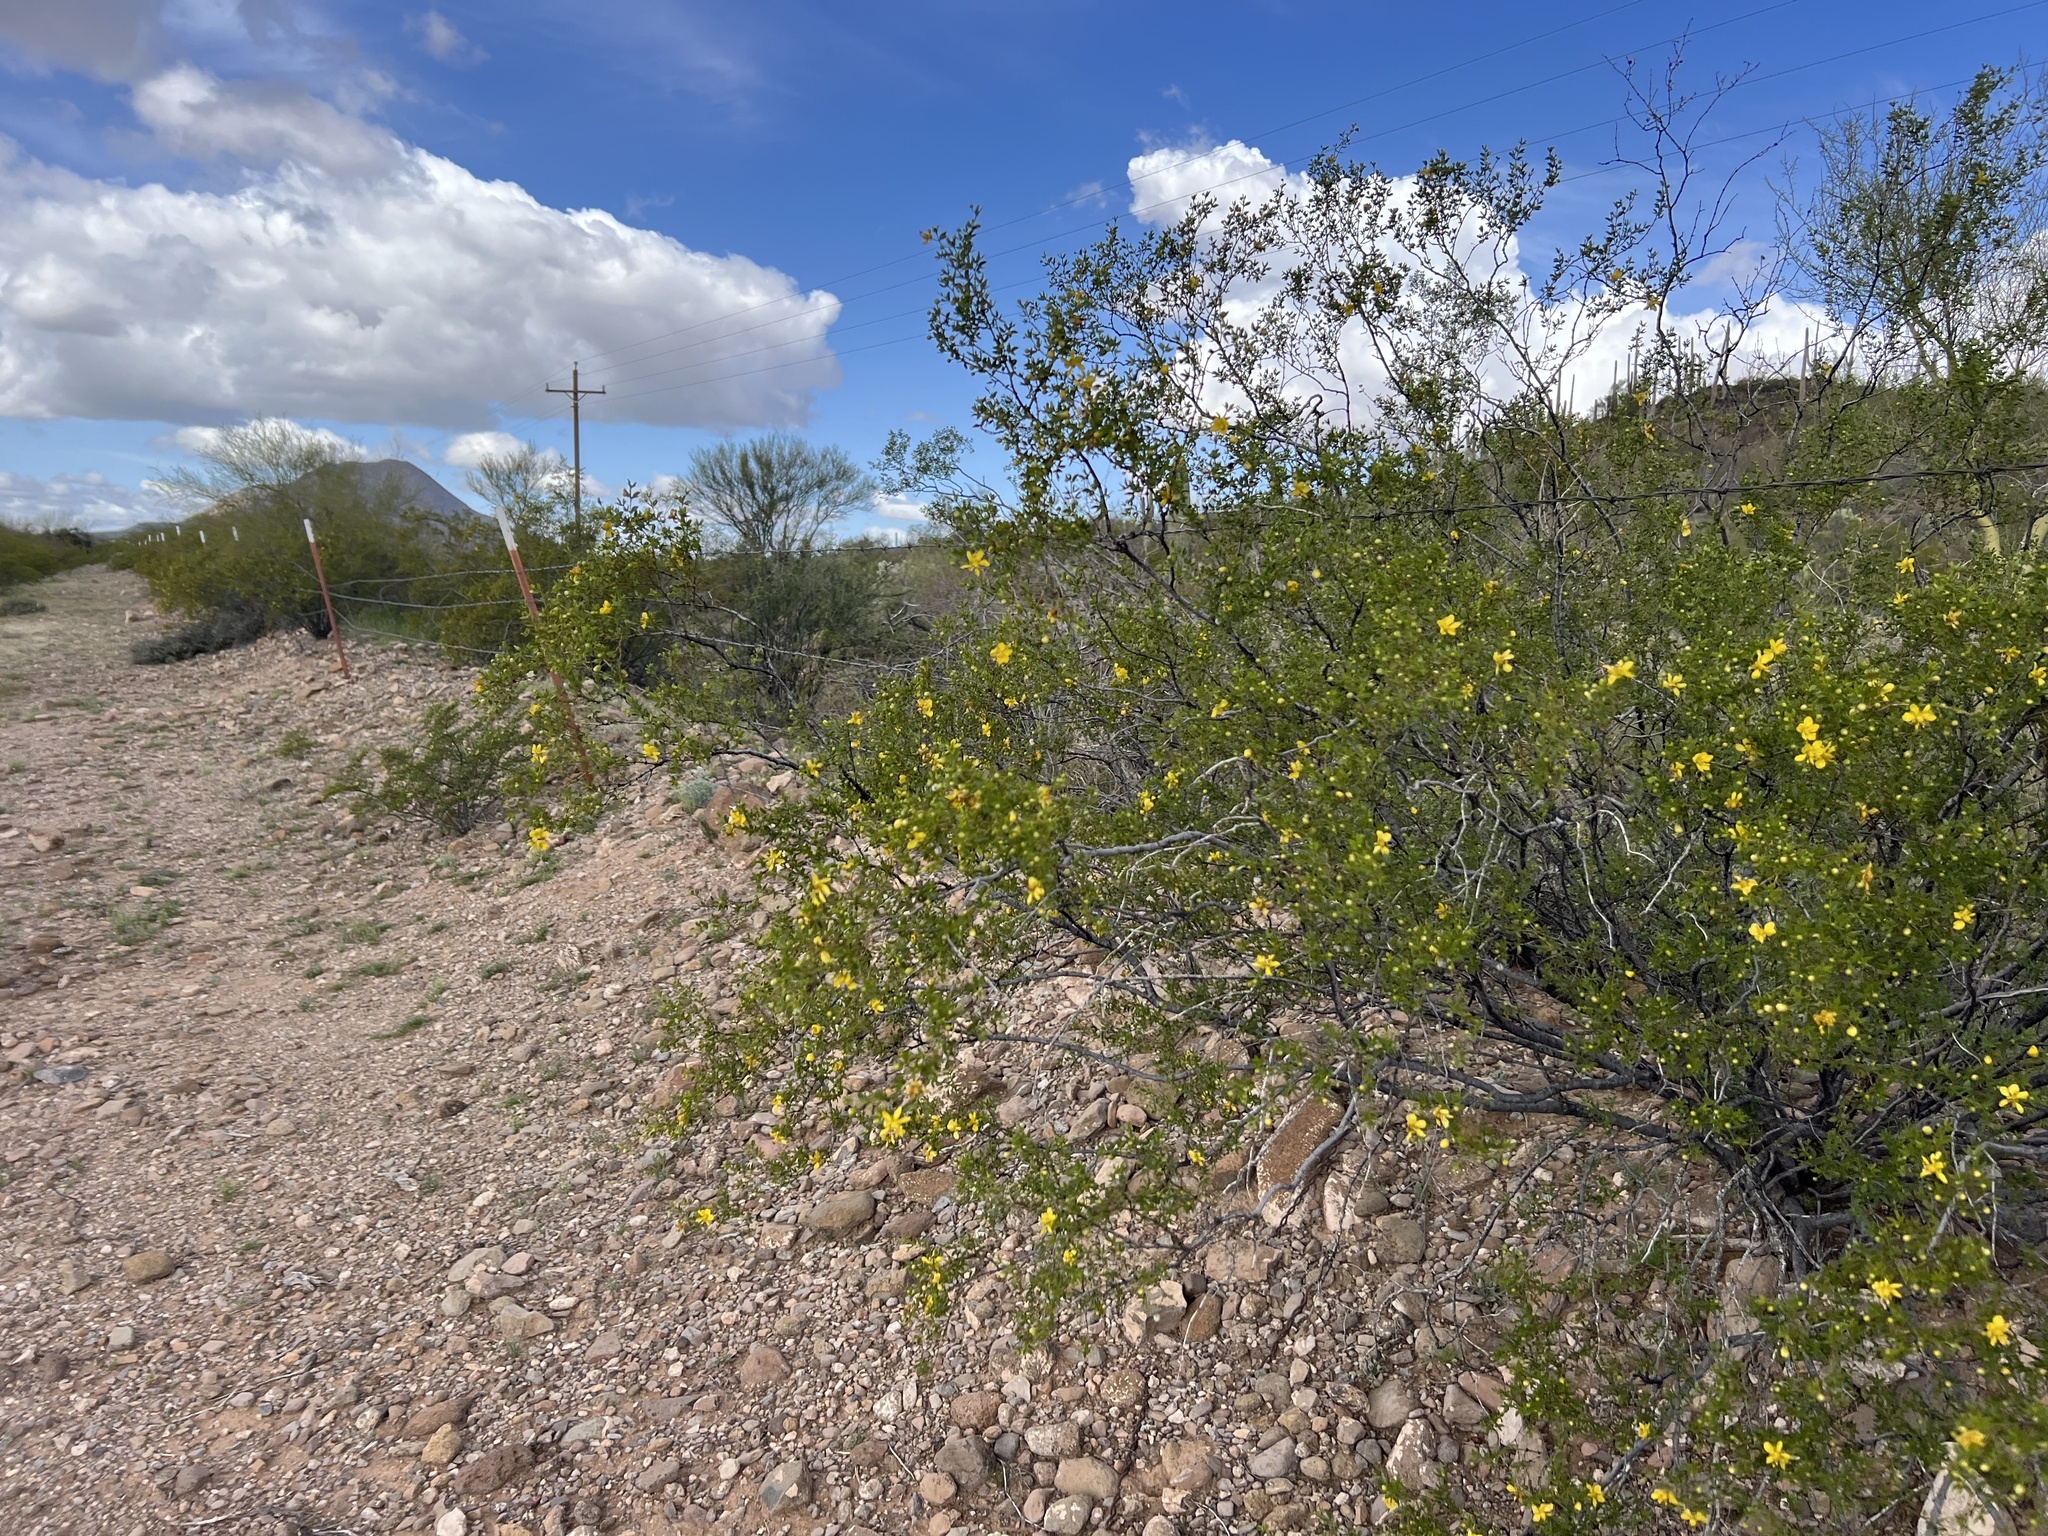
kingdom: Plantae
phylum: Tracheophyta
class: Magnoliopsida
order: Zygophyllales
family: Zygophyllaceae
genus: Larrea
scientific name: Larrea tridentata
